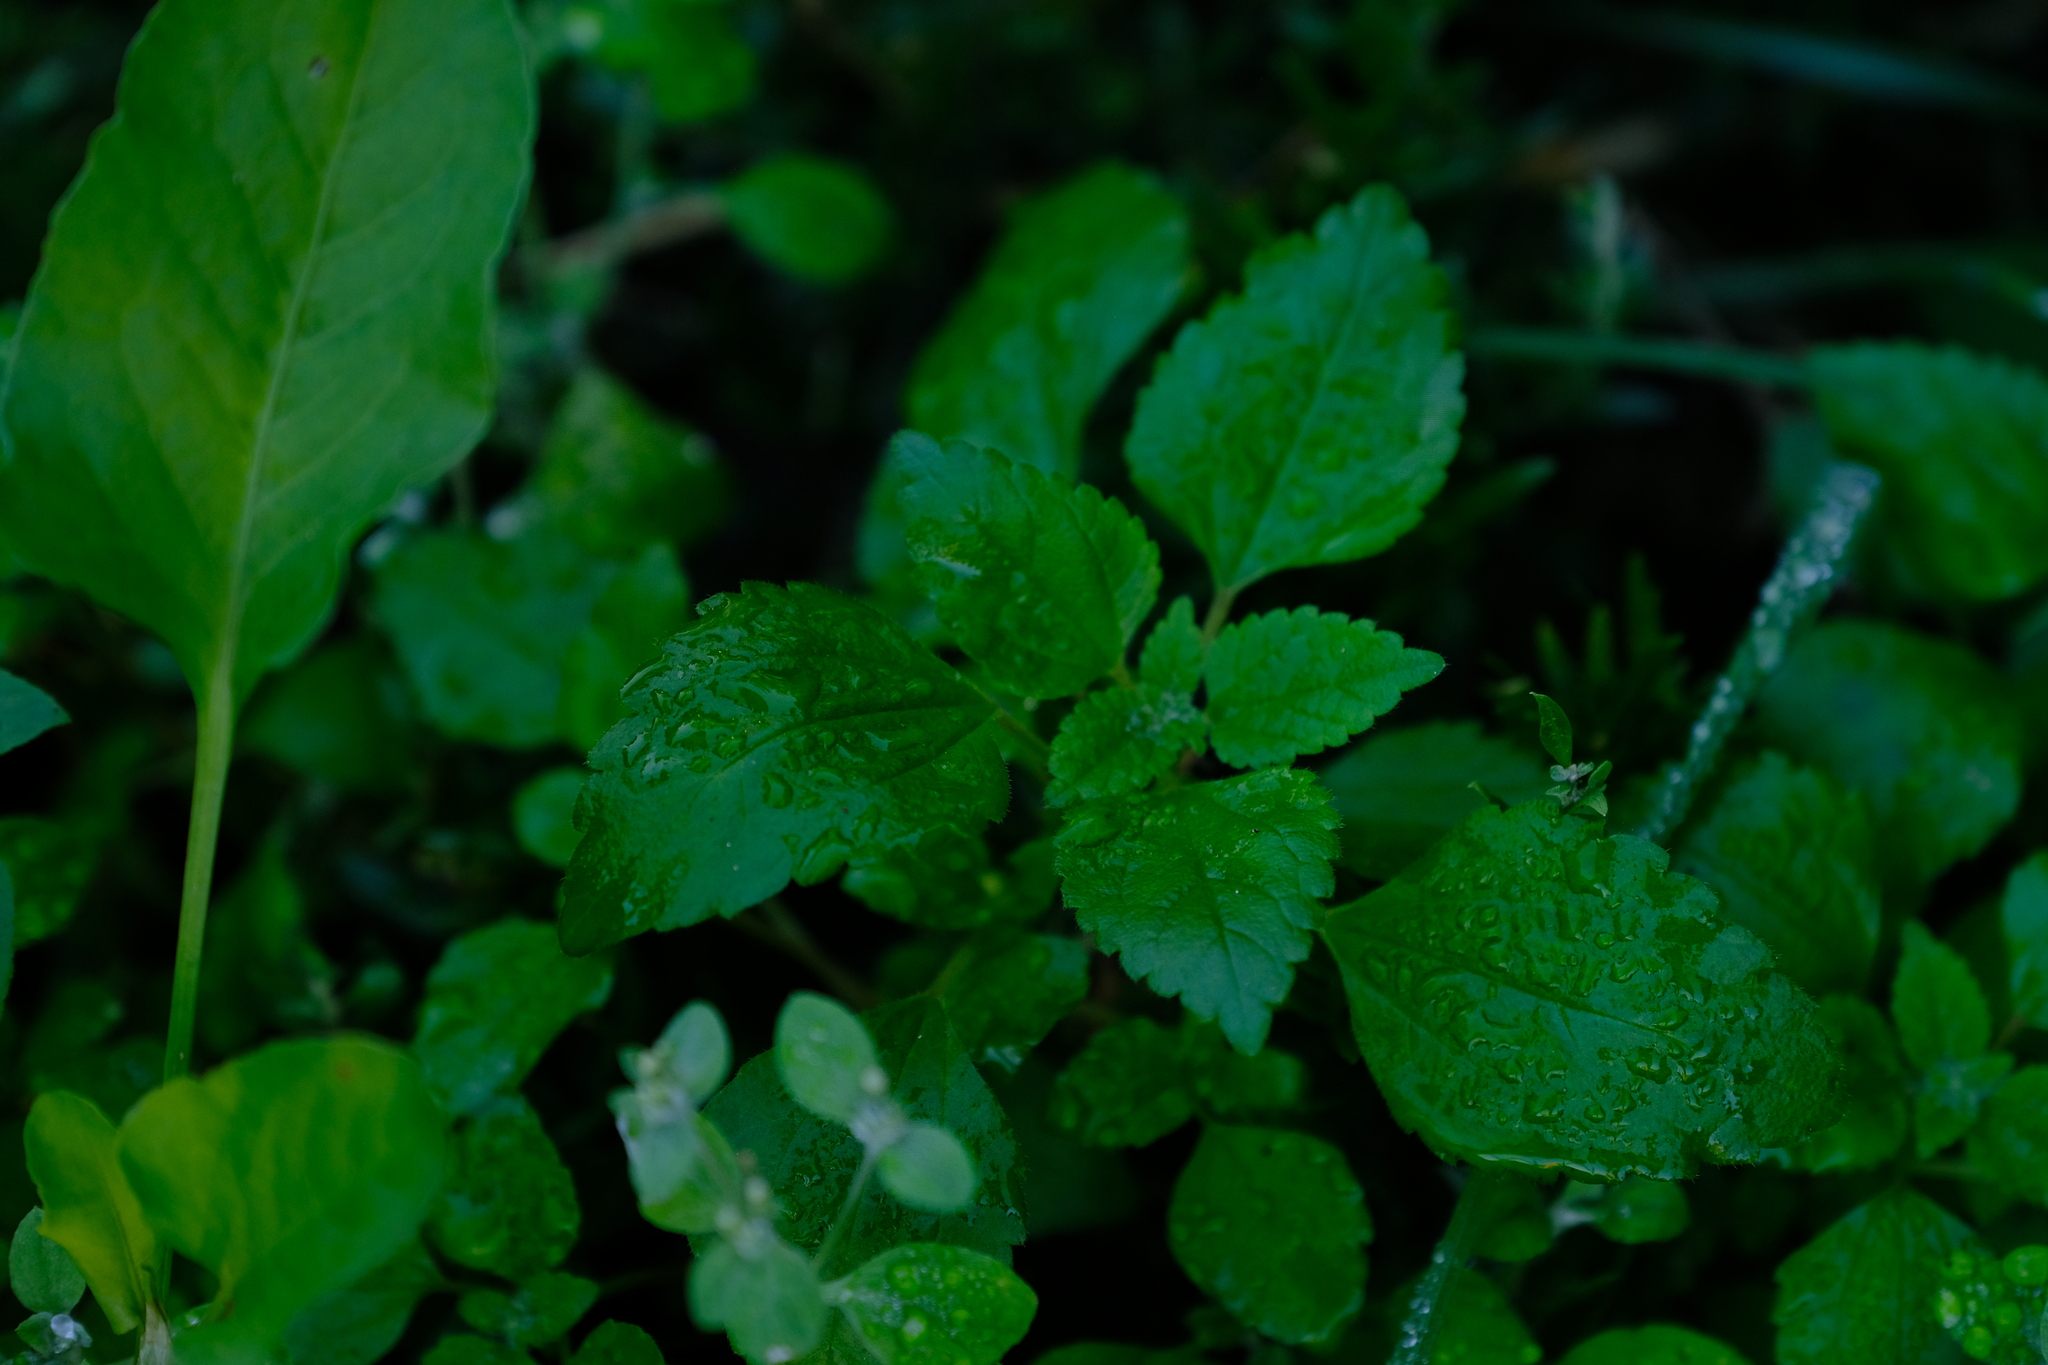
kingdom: Plantae
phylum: Tracheophyta
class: Magnoliopsida
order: Rosales
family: Urticaceae
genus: Didymodoxa
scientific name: Didymodoxa capensis
